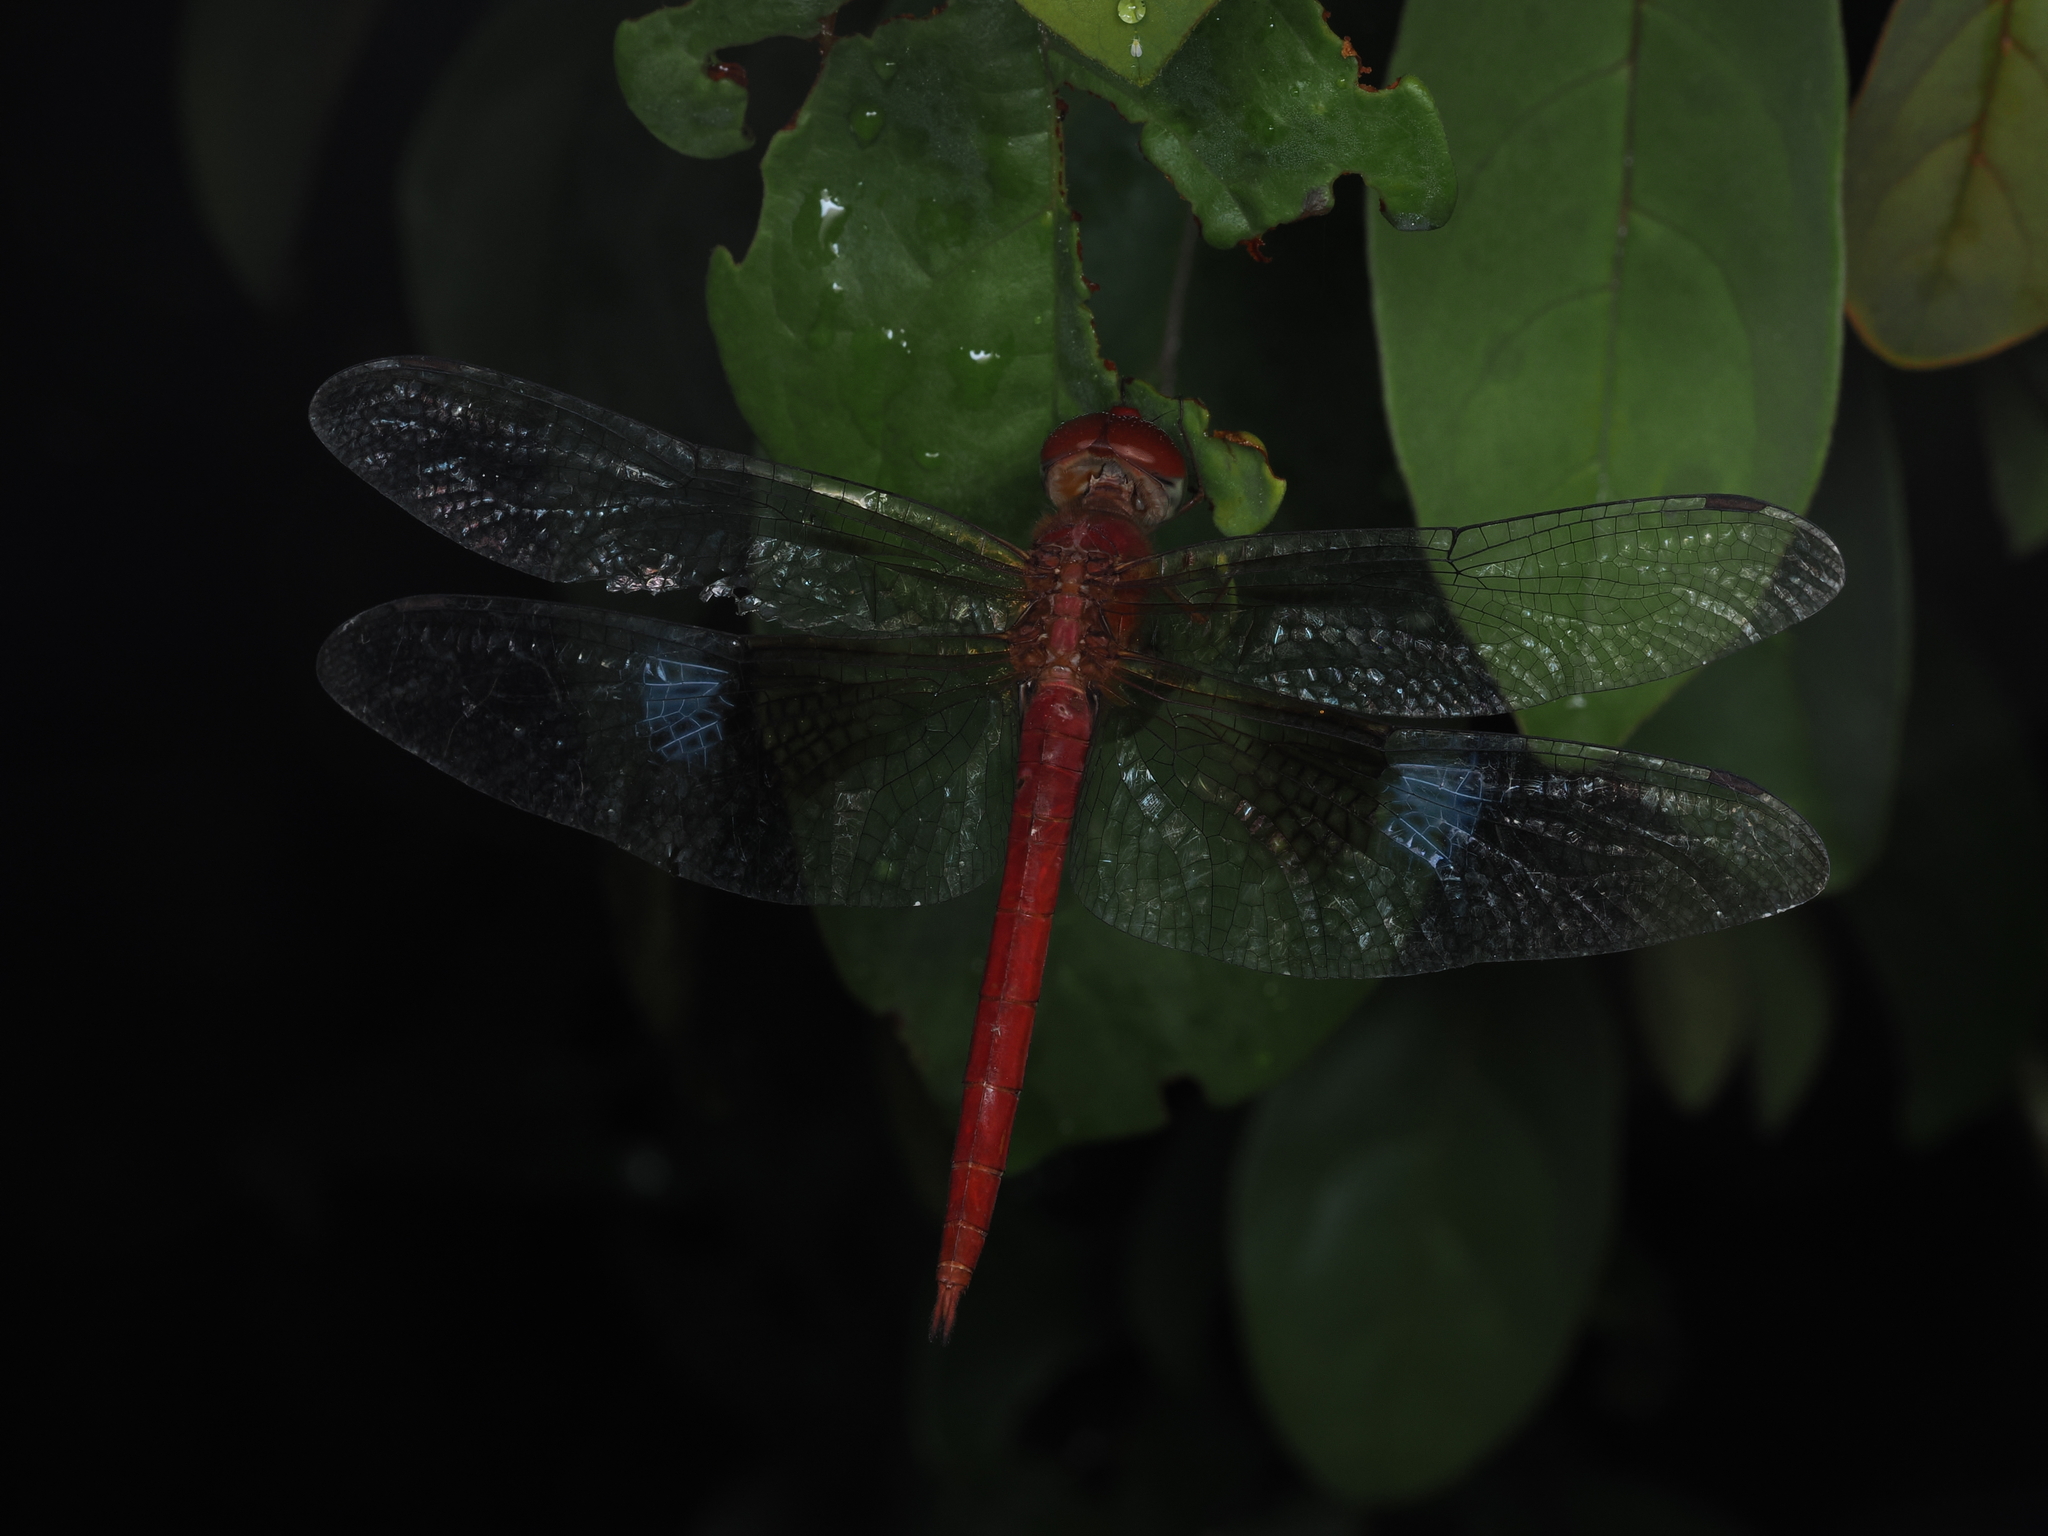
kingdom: Animalia
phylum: Arthropoda
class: Insecta
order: Odonata
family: Libellulidae
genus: Tholymis
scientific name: Tholymis tillarga
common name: Coral-tailed cloud wing
